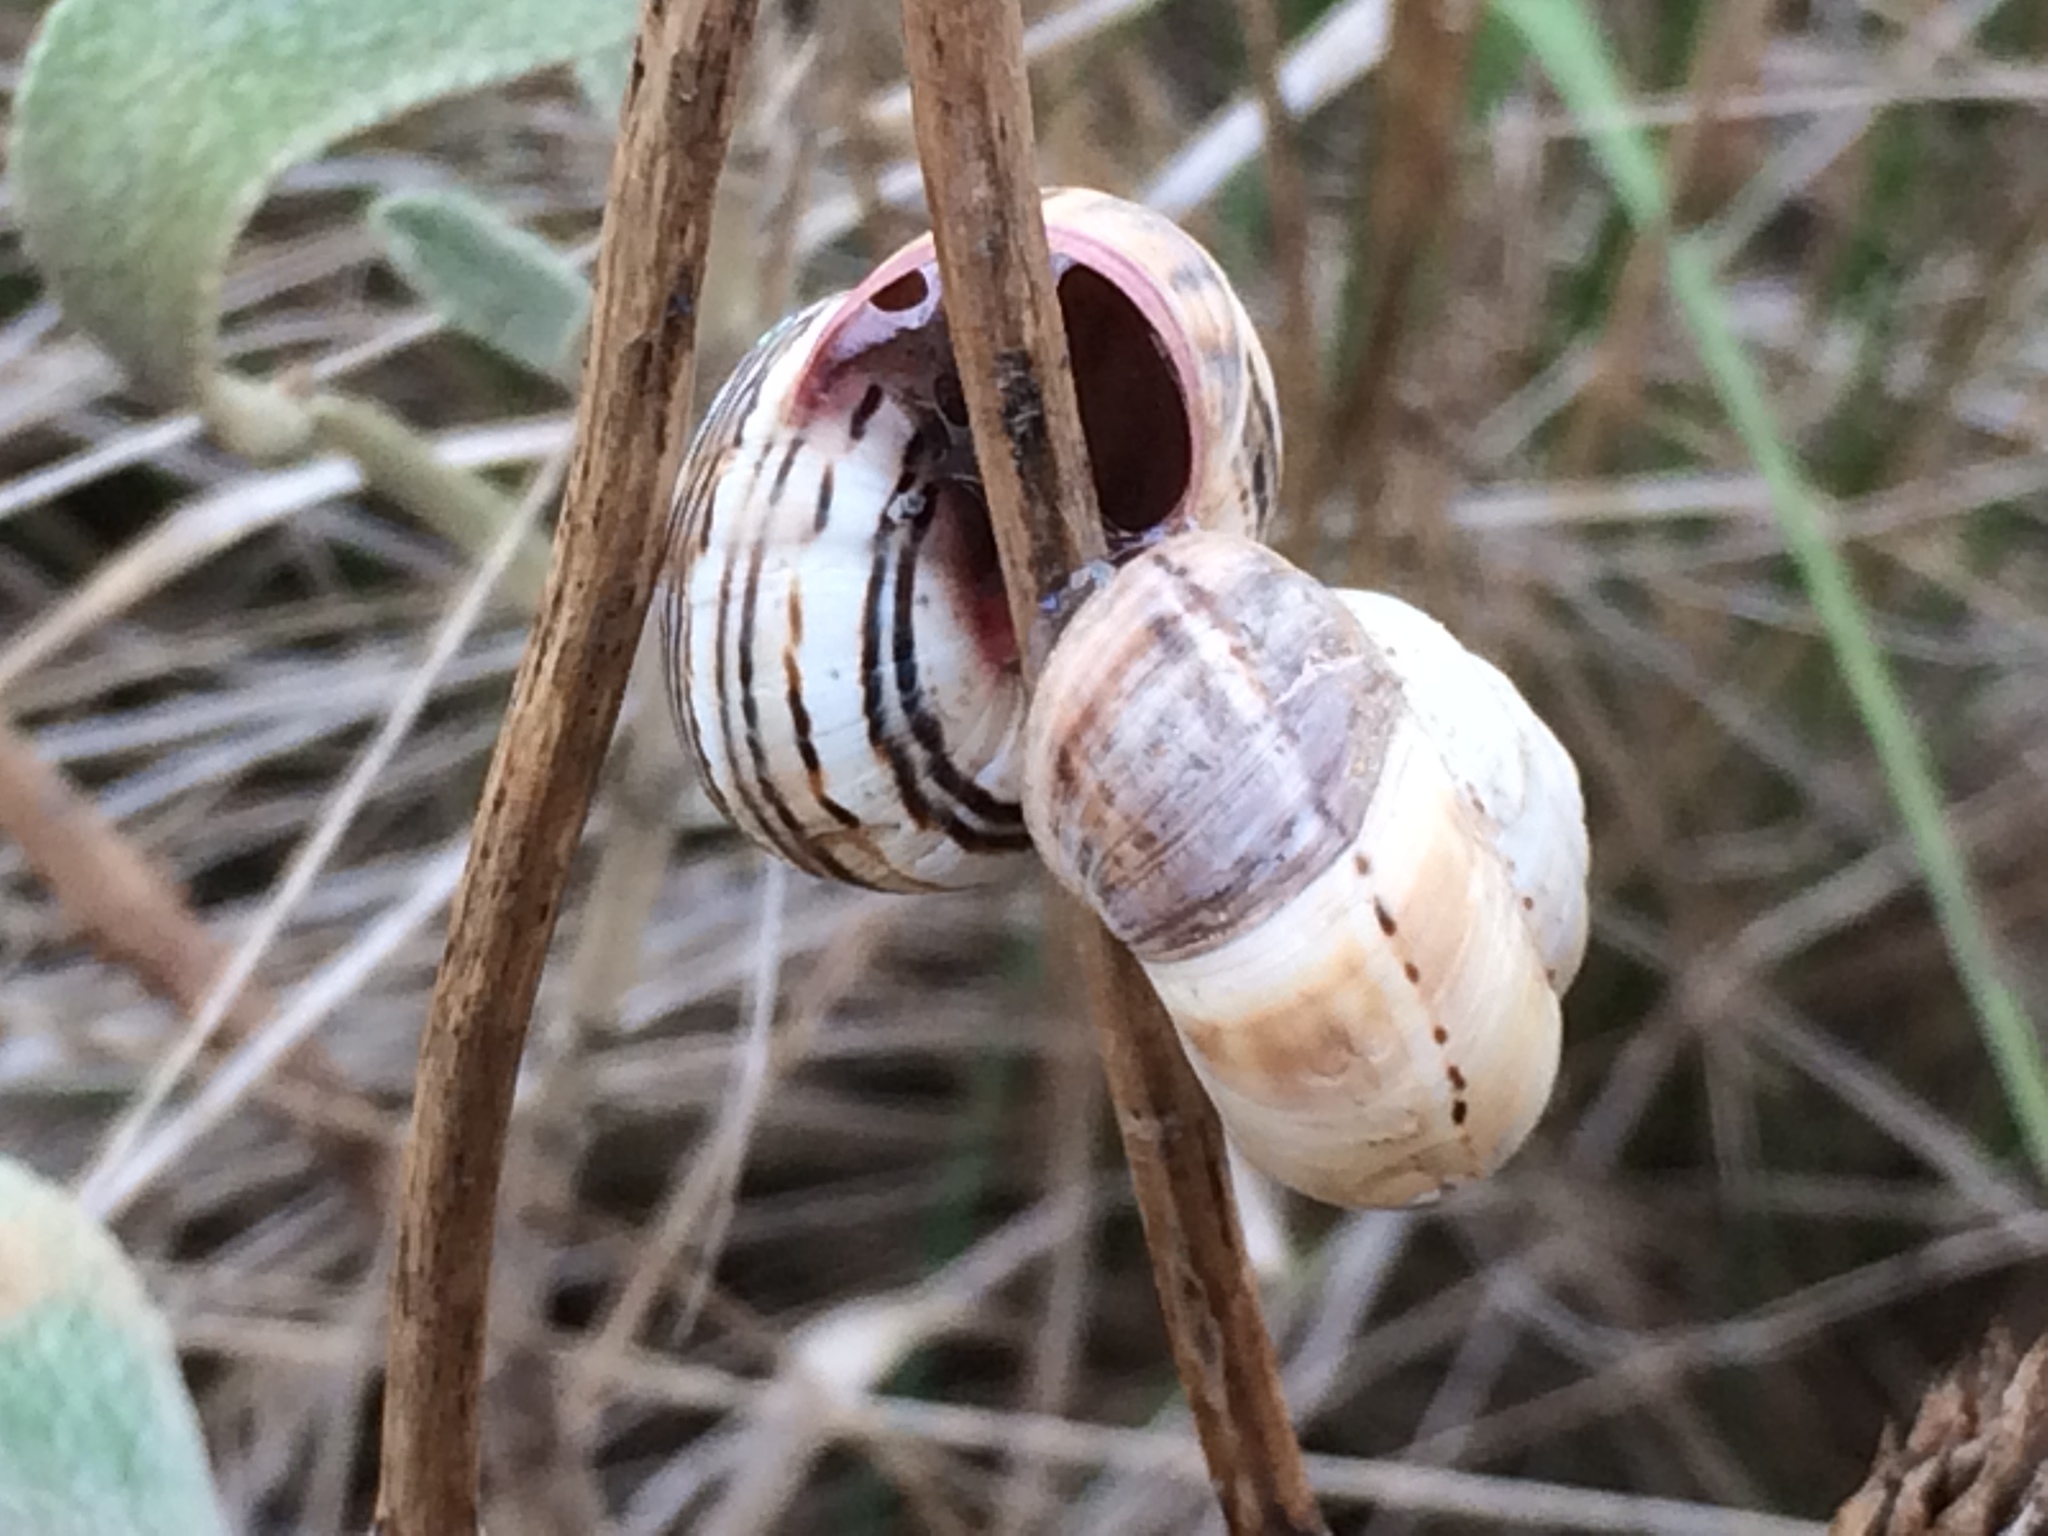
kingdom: Animalia
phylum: Mollusca
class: Gastropoda
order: Stylommatophora
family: Helicidae
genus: Theba
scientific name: Theba pisana
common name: White snail
